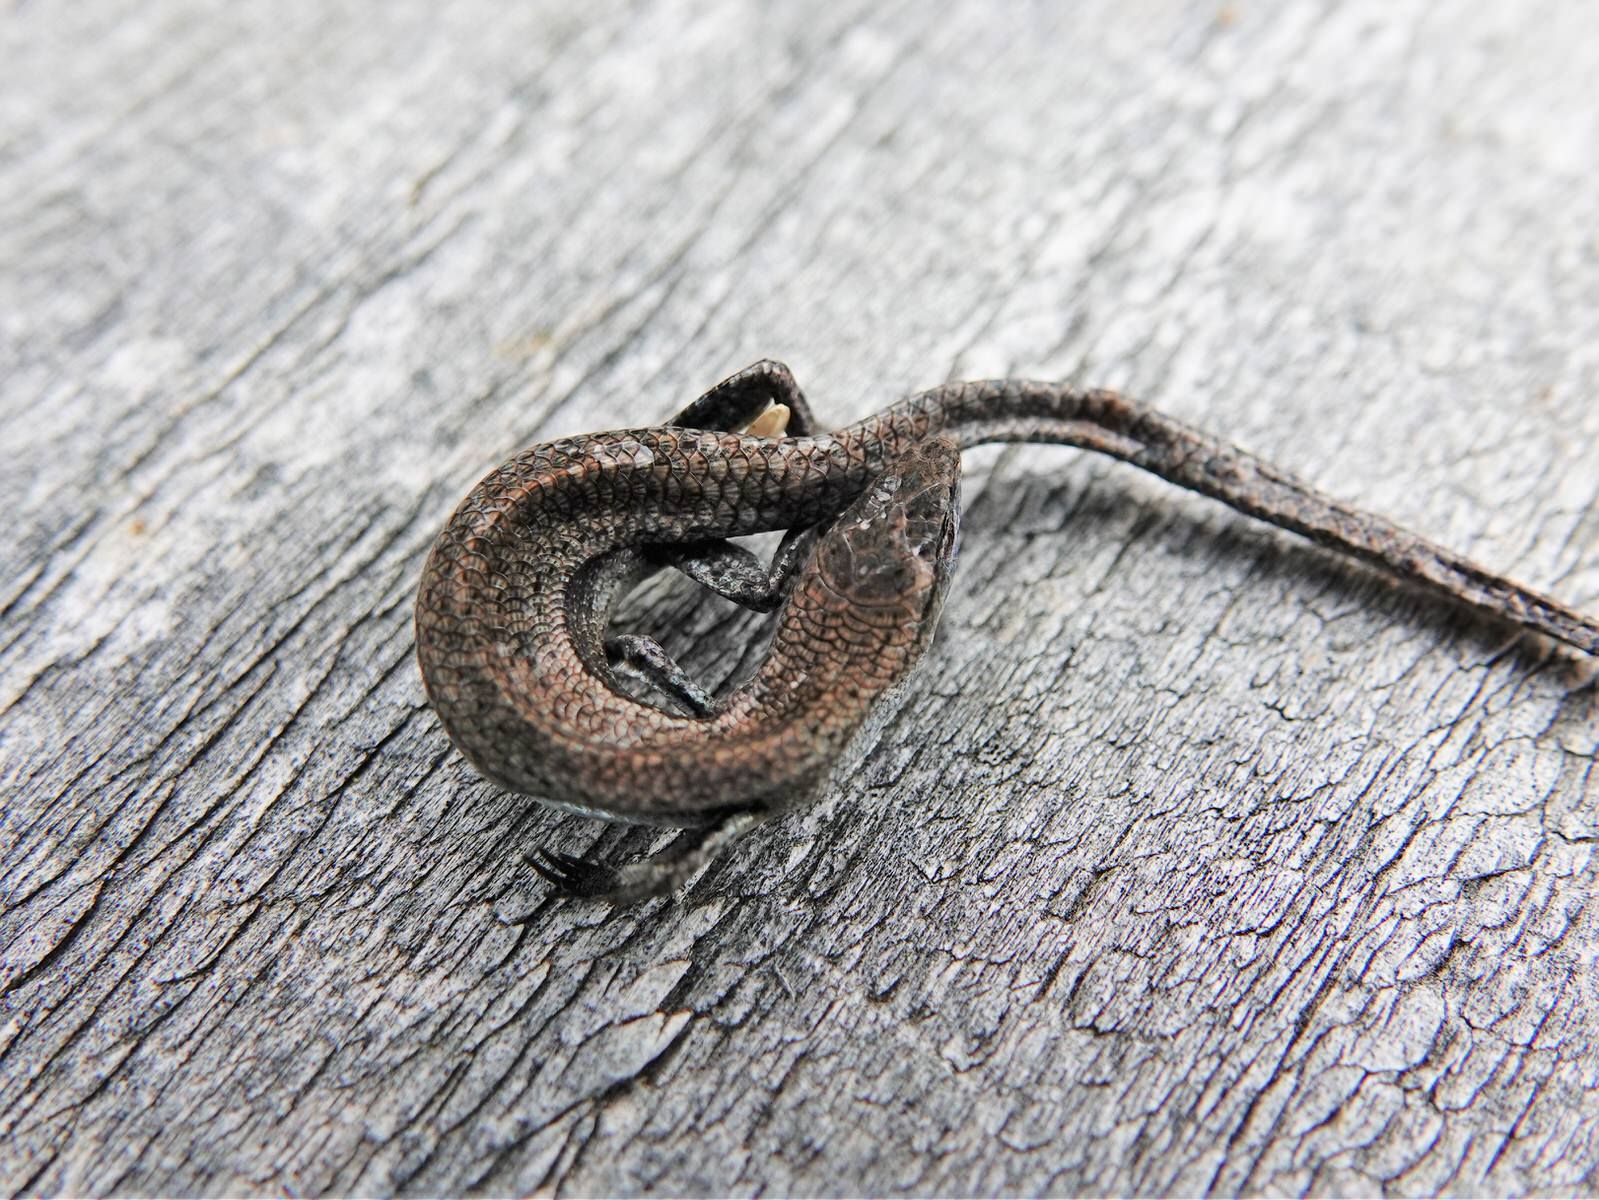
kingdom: Animalia
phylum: Chordata
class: Squamata
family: Scincidae
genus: Lampropholis
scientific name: Lampropholis delicata
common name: Plague skink
